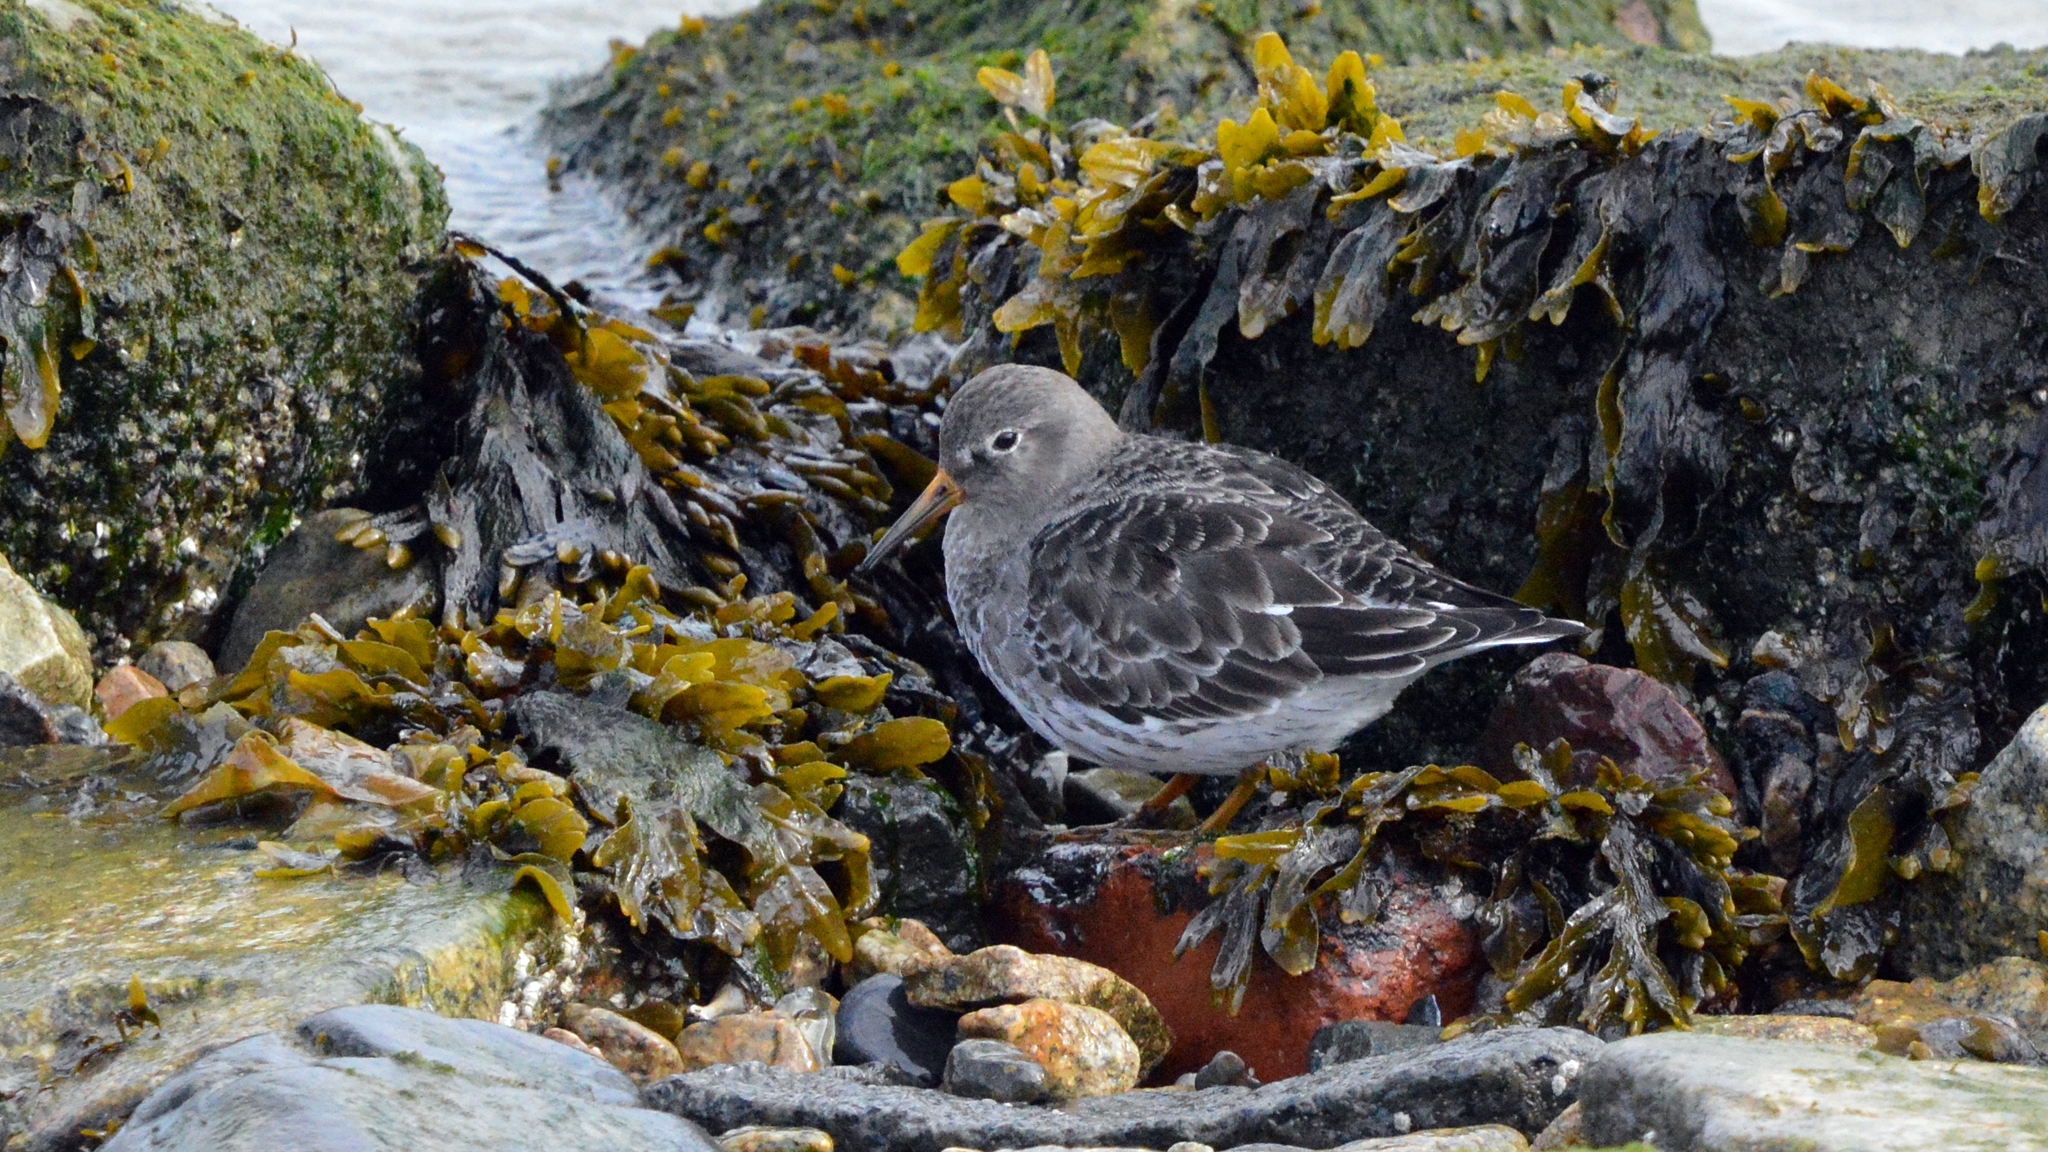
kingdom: Animalia
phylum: Chordata
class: Aves
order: Charadriiformes
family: Scolopacidae
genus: Calidris
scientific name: Calidris maritima
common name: Purple sandpiper
